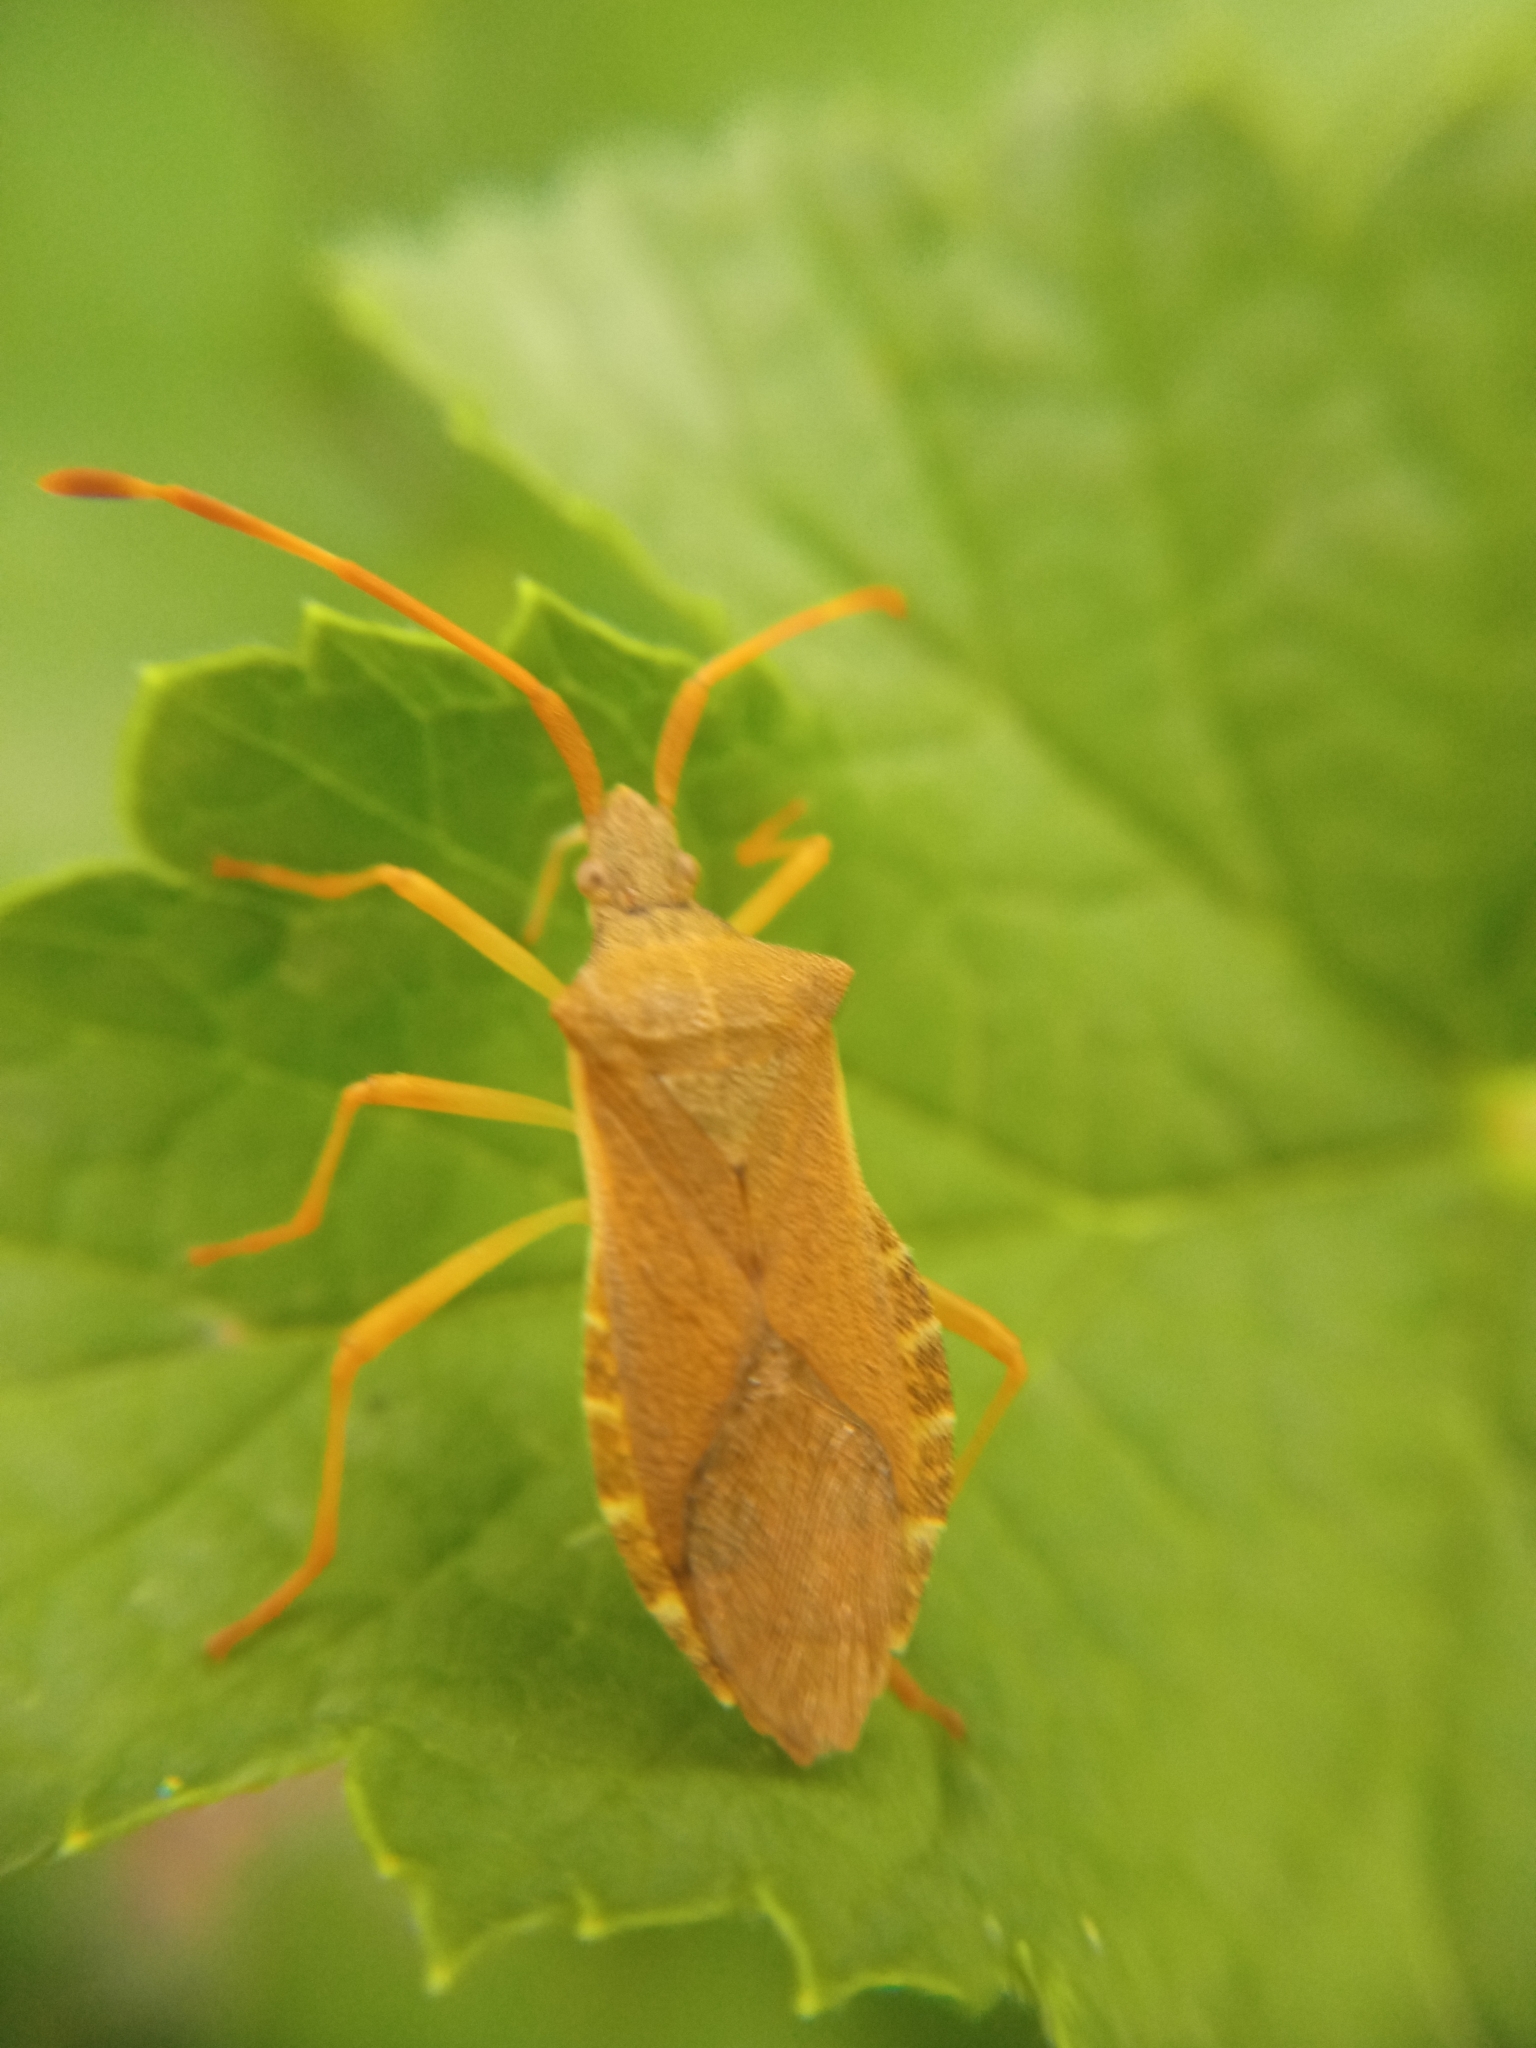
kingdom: Animalia
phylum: Arthropoda
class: Insecta
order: Hemiptera
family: Coreidae
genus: Gonocerus
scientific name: Gonocerus acuteangulatus
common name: Box bug
